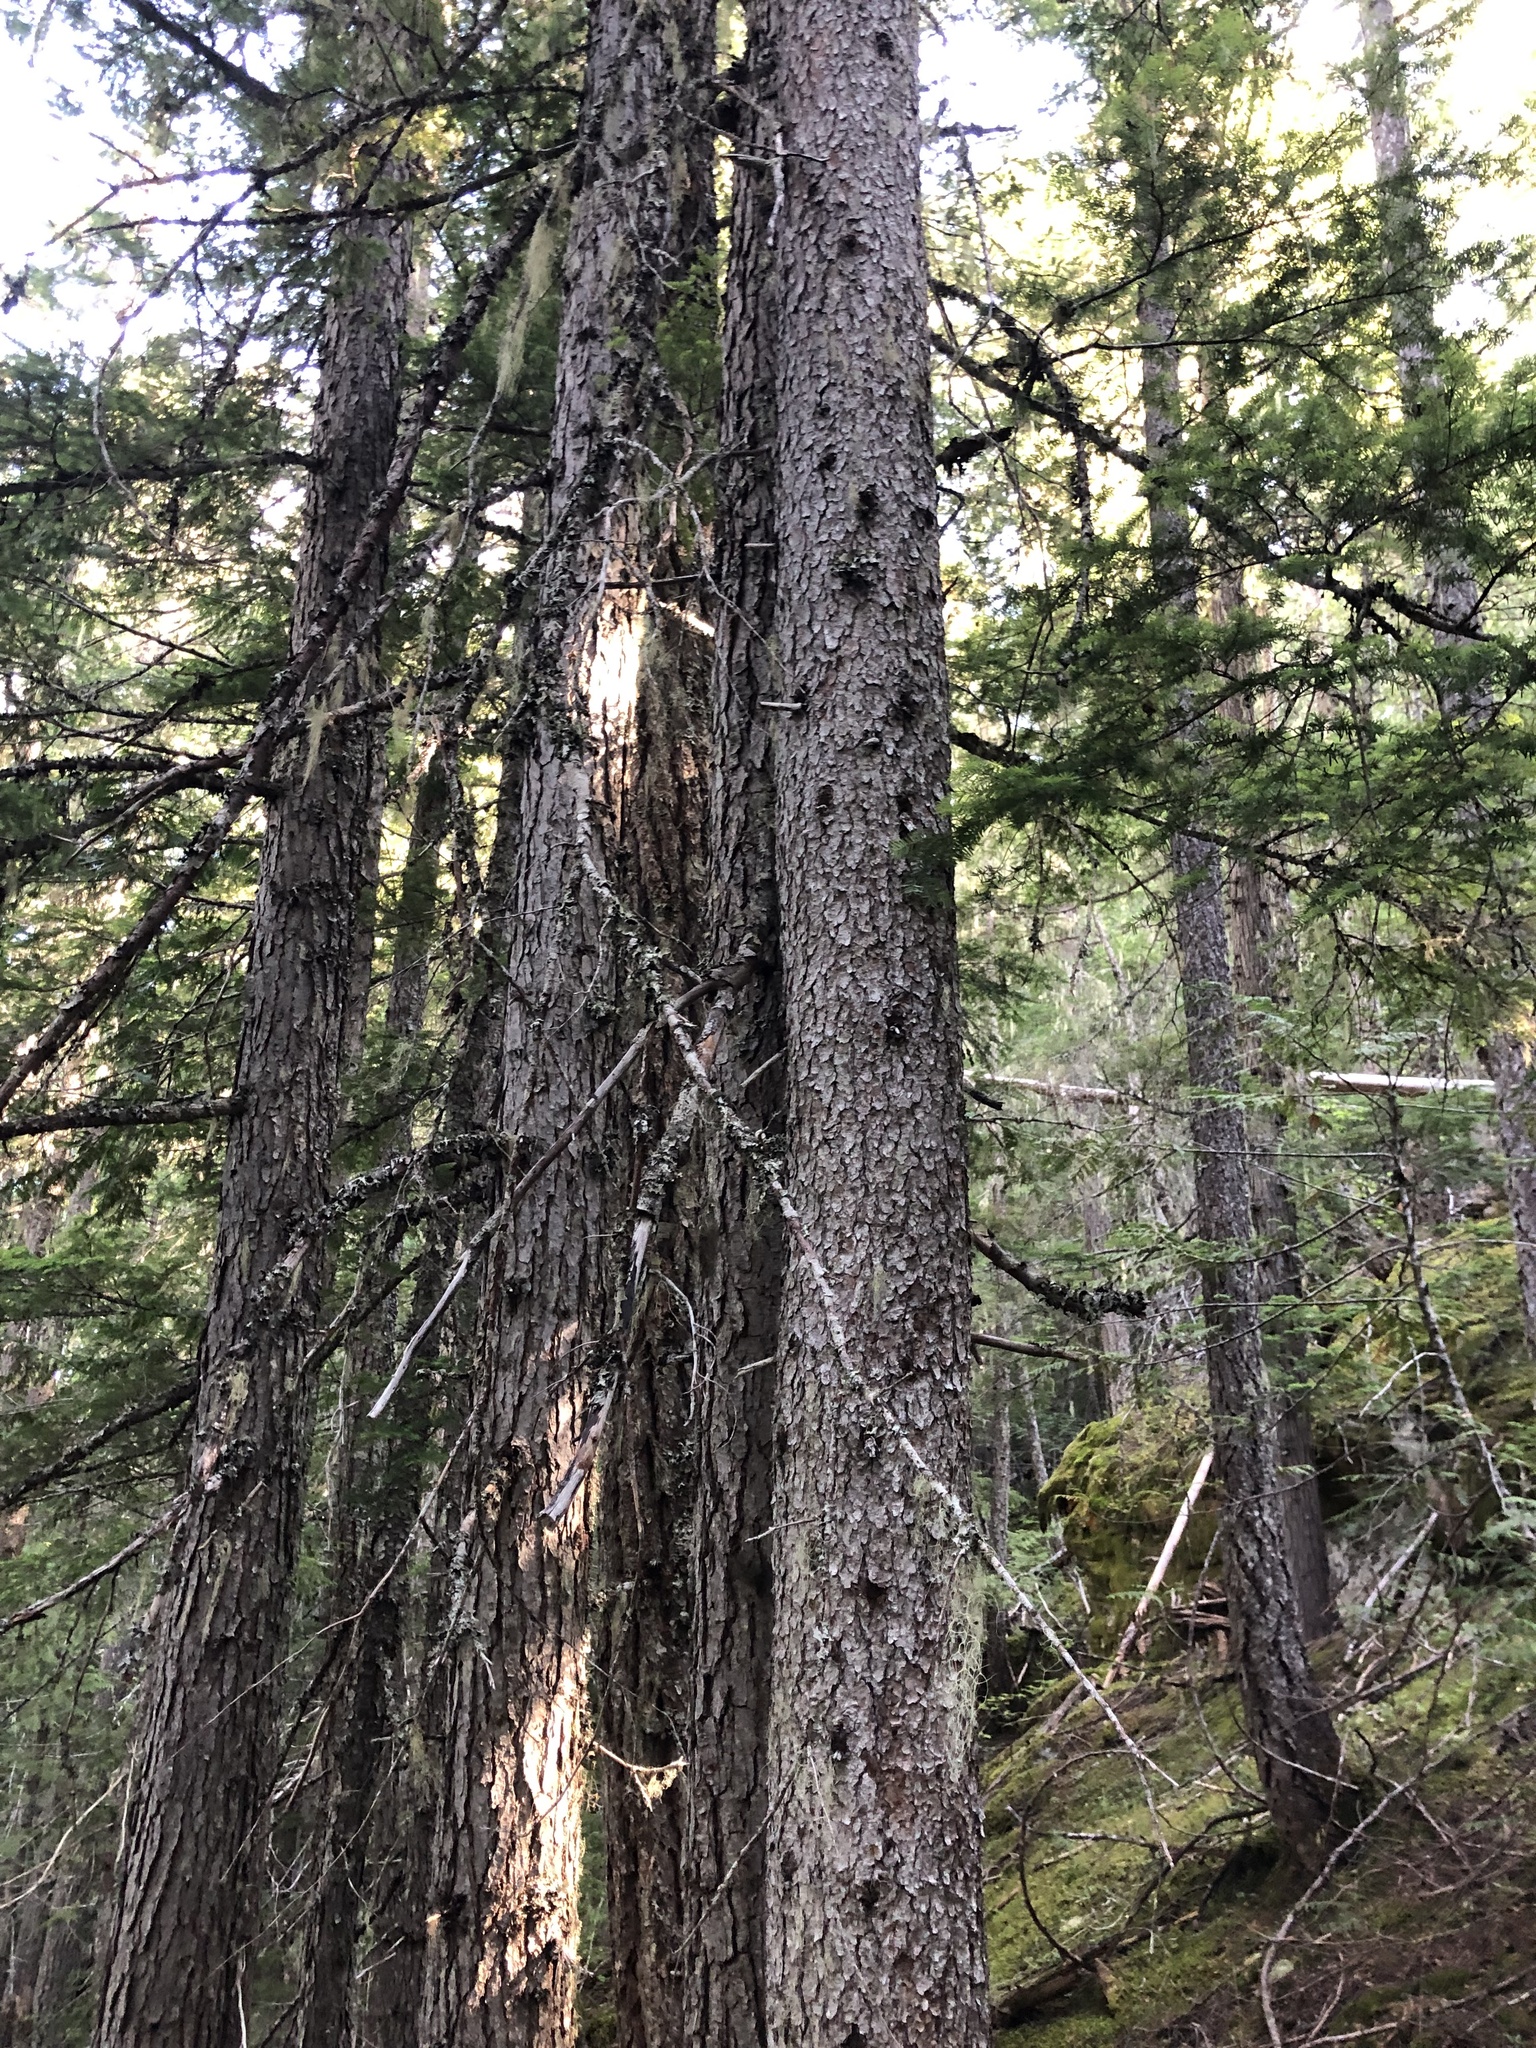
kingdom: Plantae
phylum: Tracheophyta
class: Pinopsida
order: Pinales
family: Pinaceae
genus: Pinus
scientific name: Pinus contorta
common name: Lodgepole pine
